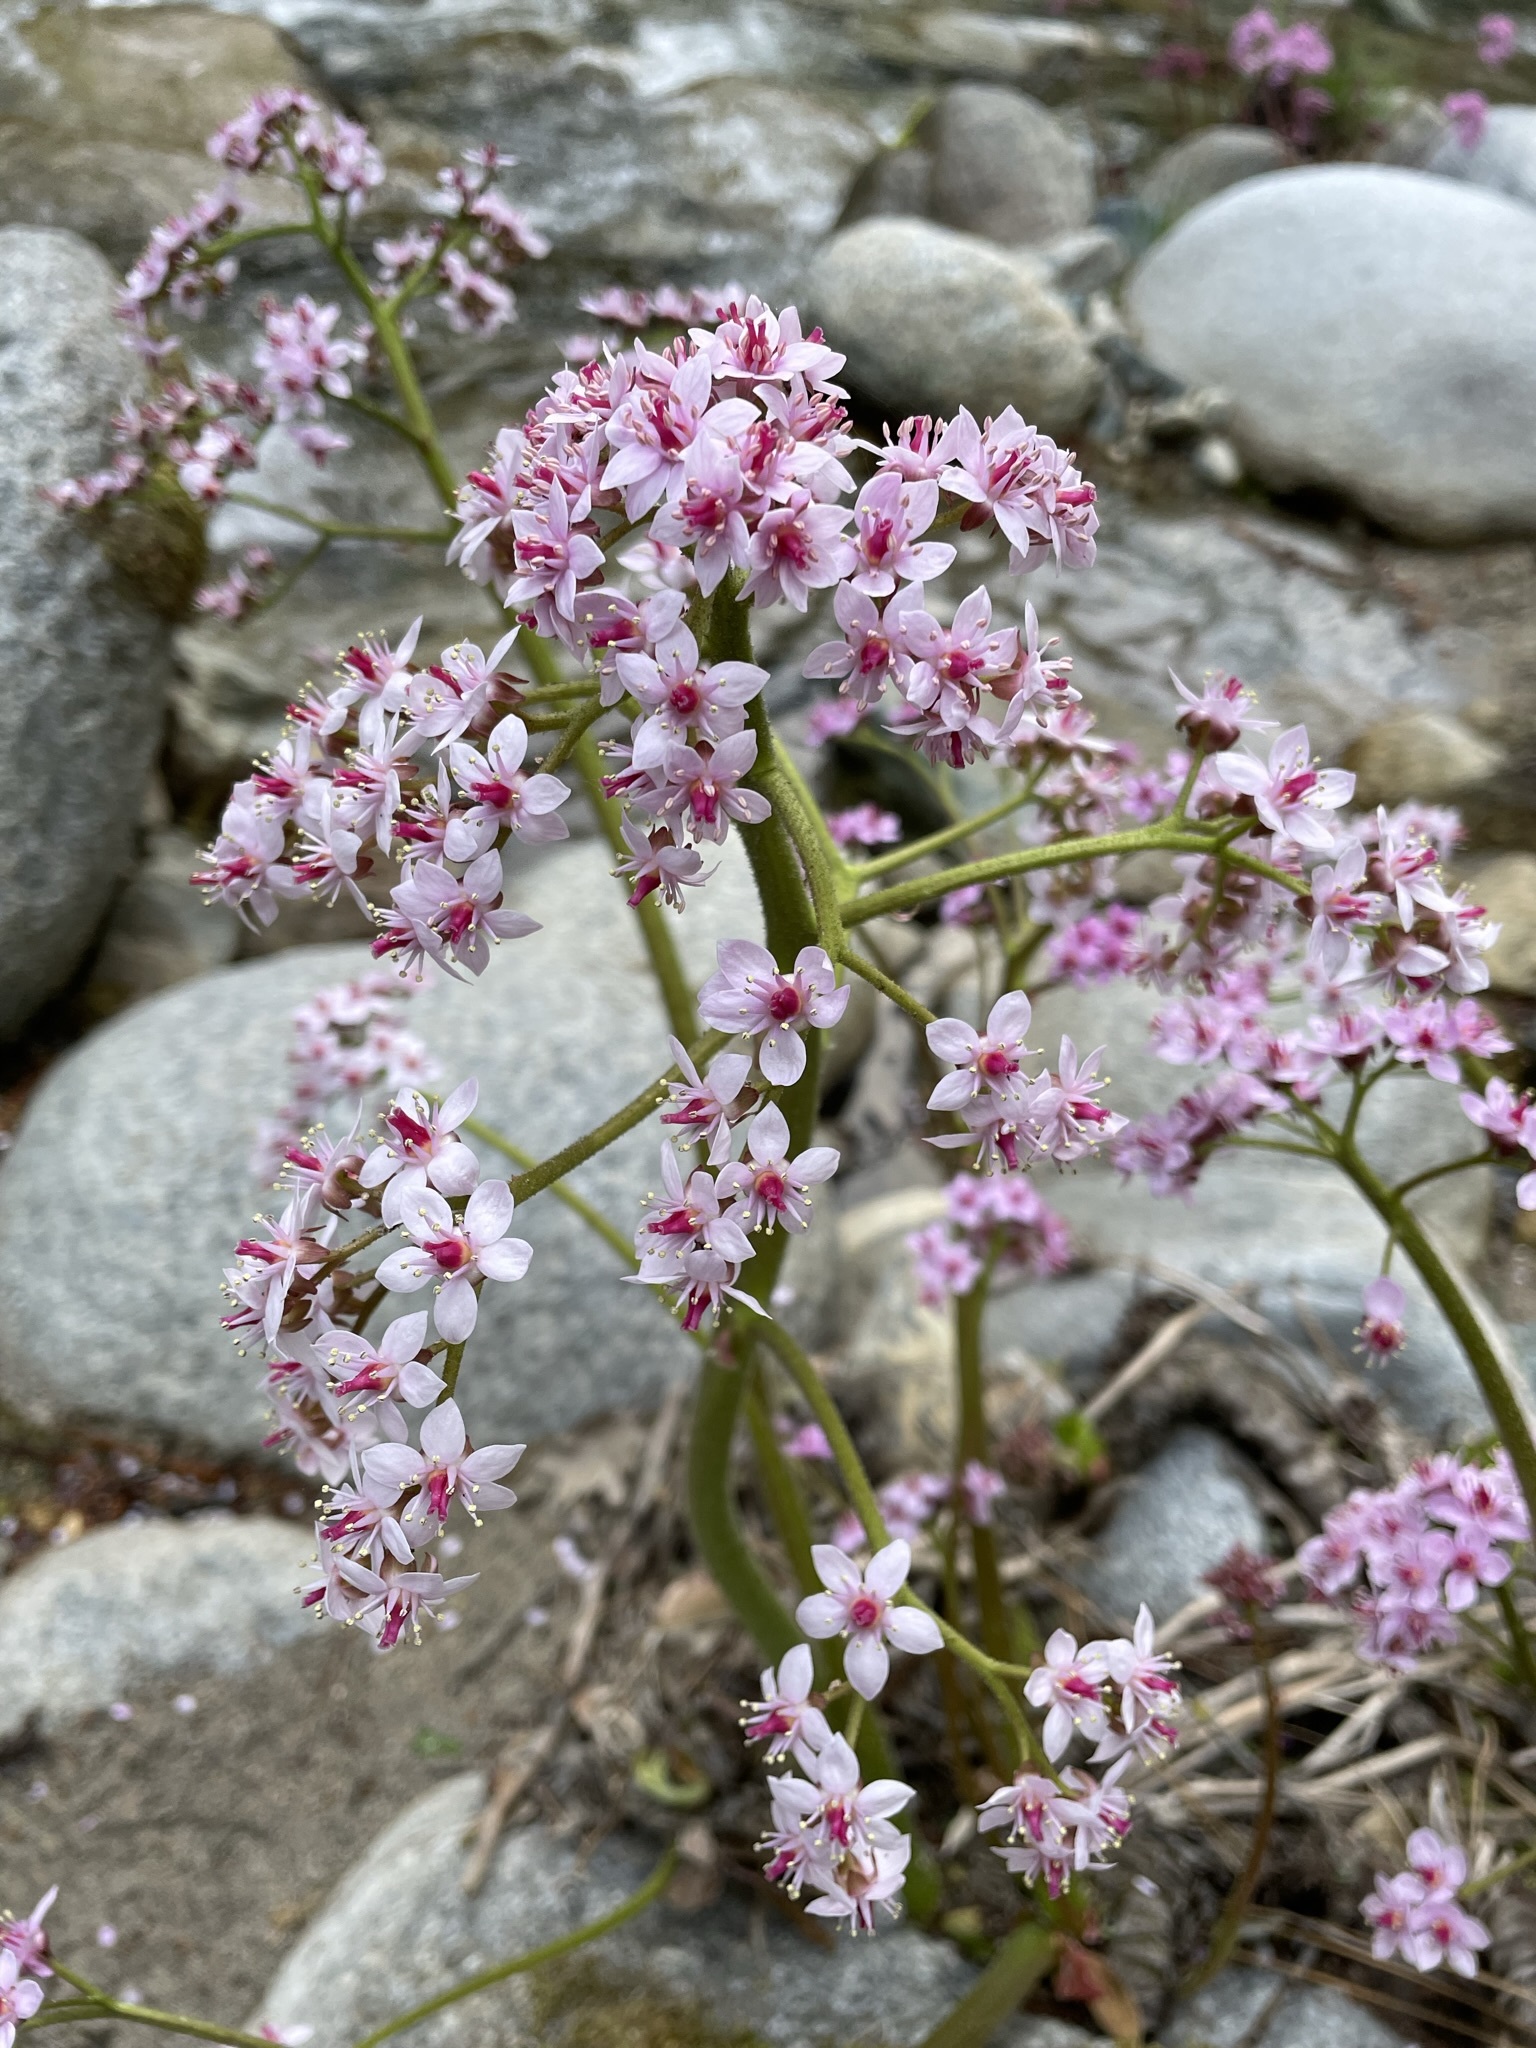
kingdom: Plantae
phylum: Tracheophyta
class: Magnoliopsida
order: Saxifragales
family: Saxifragaceae
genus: Darmera
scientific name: Darmera peltata
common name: Indian-rhubarb
